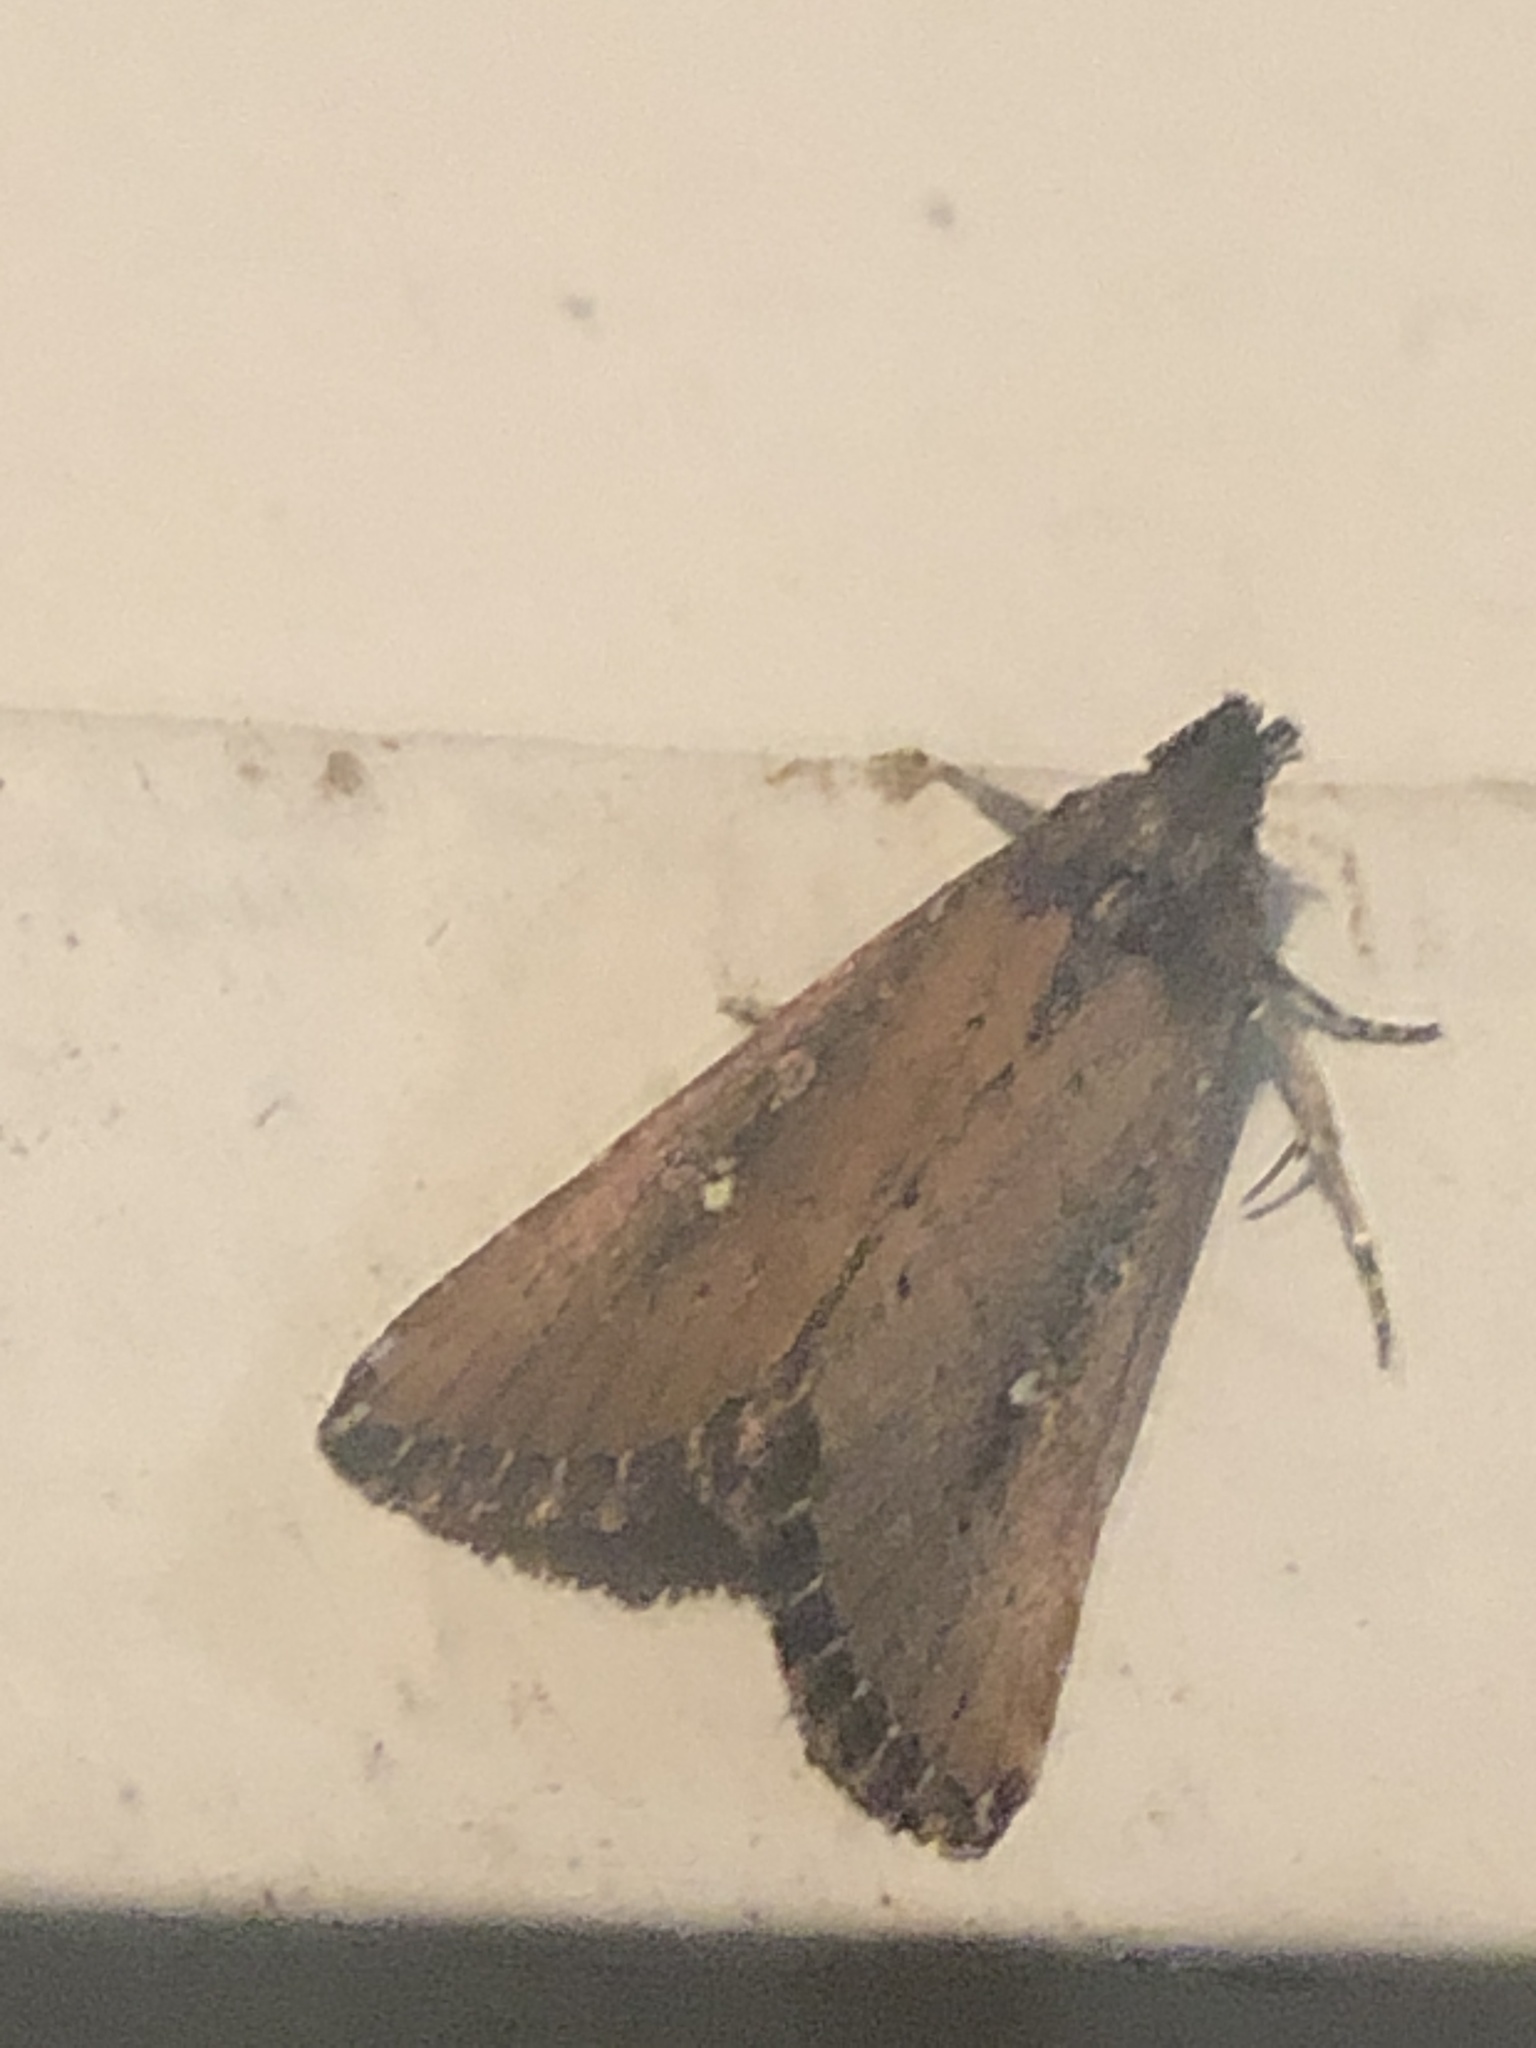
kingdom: Animalia
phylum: Arthropoda
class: Insecta
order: Lepidoptera
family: Noctuidae
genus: Condica
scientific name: Condica videns
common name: White-dotted groundling
